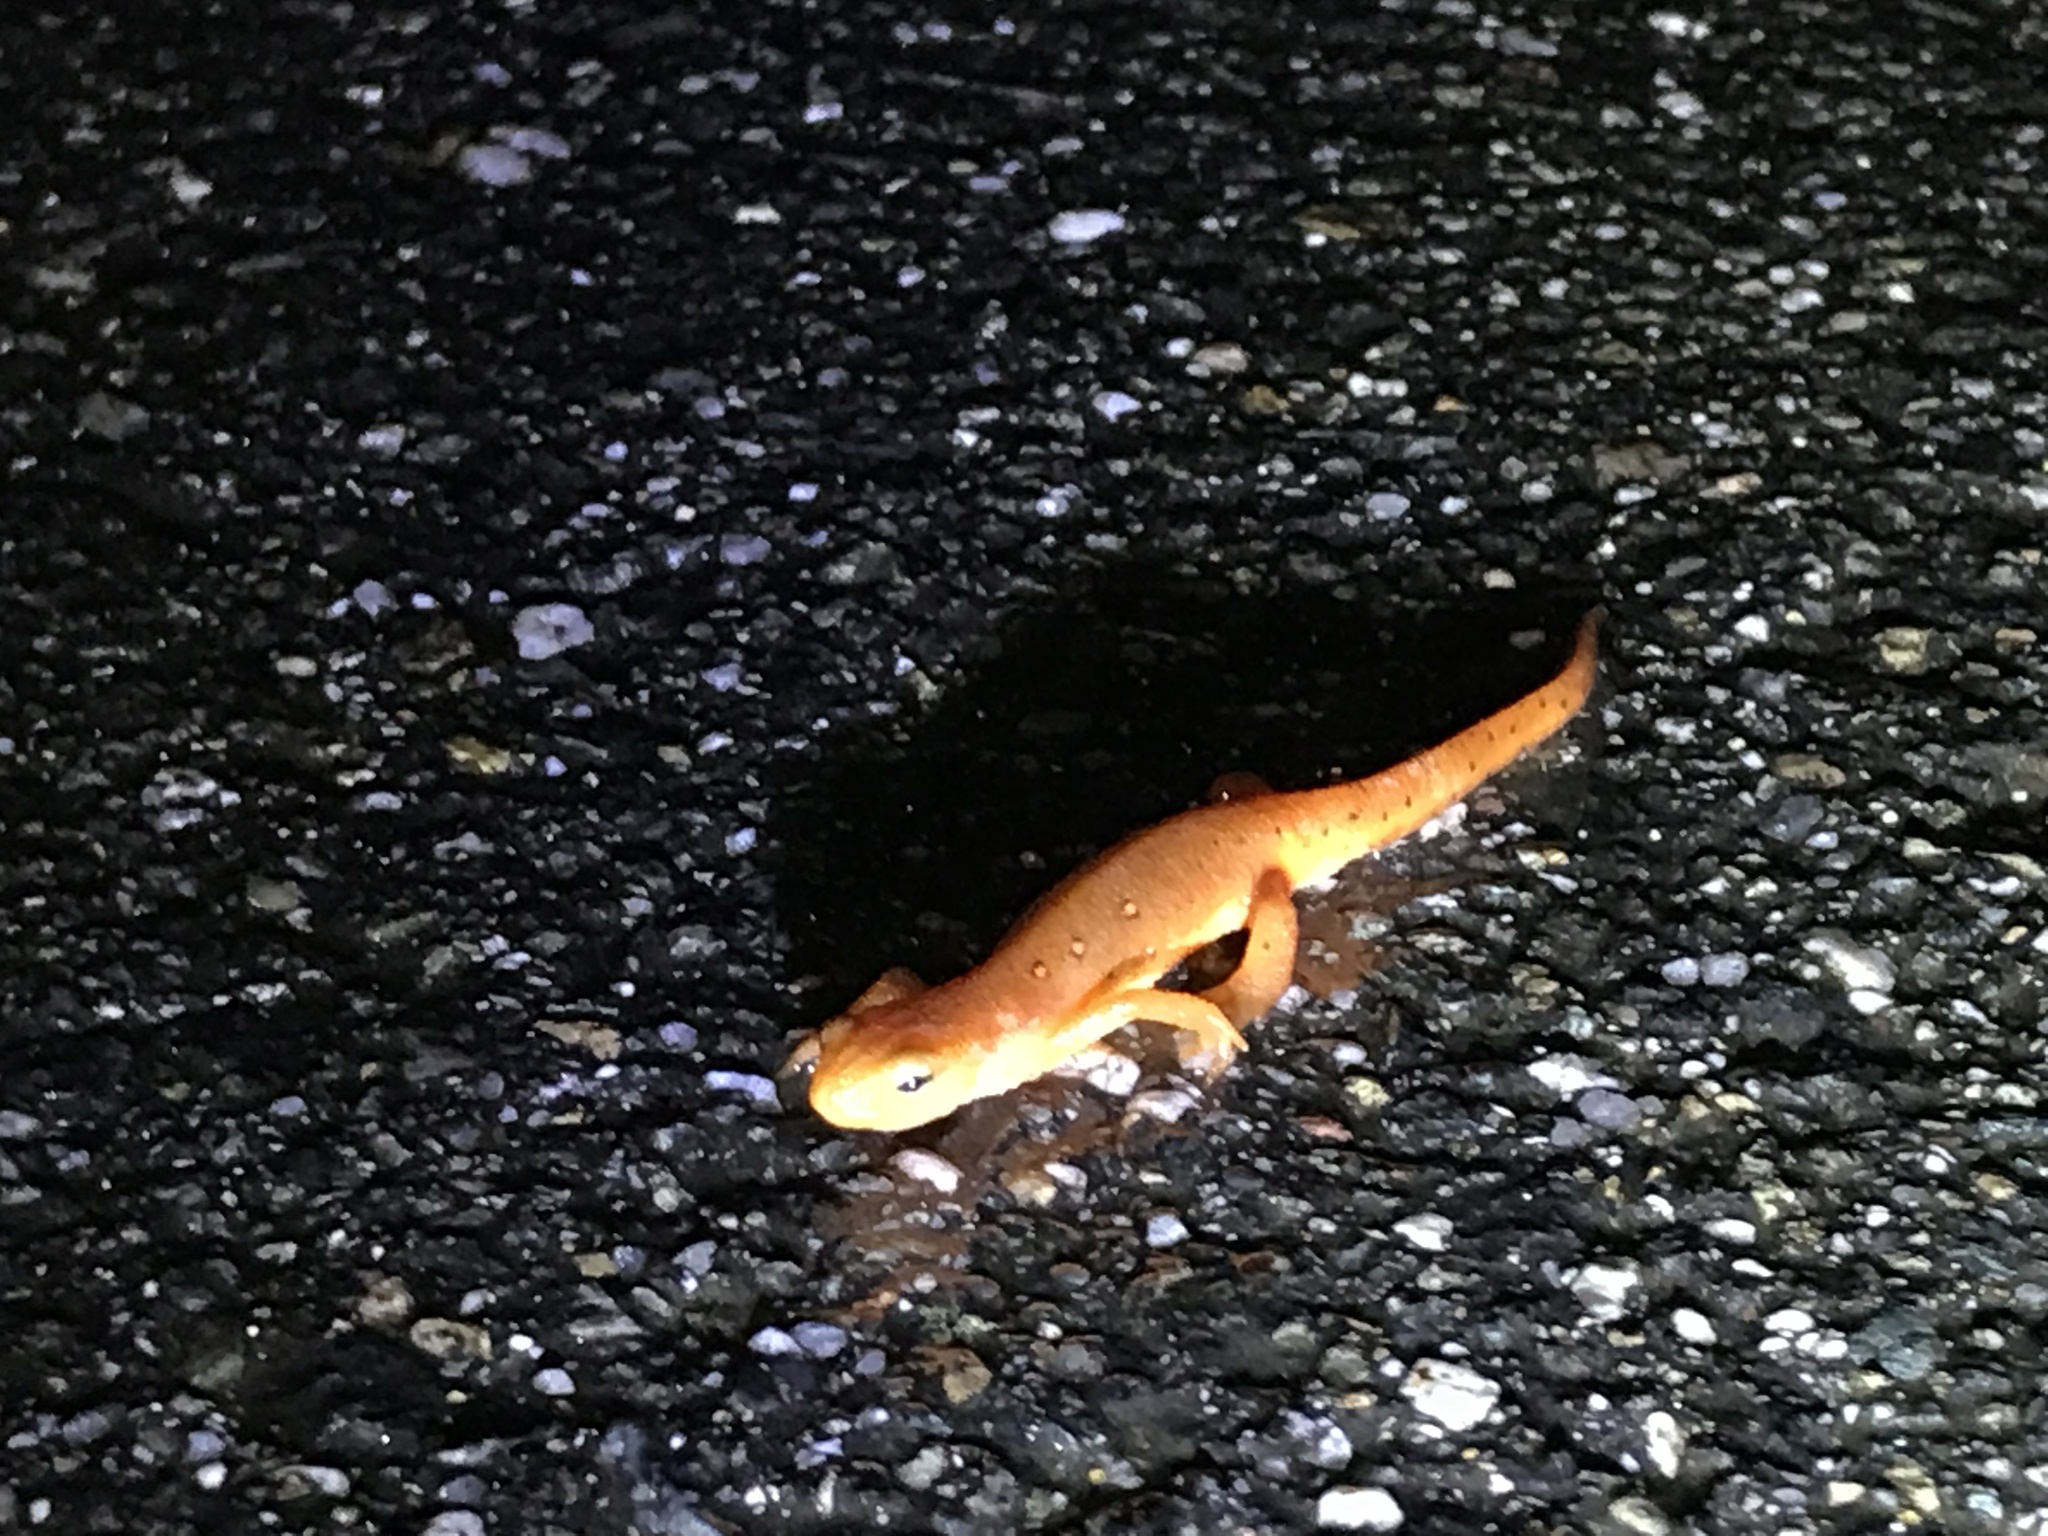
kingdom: Animalia
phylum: Chordata
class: Amphibia
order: Caudata
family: Salamandridae
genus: Notophthalmus
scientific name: Notophthalmus viridescens
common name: Eastern newt
